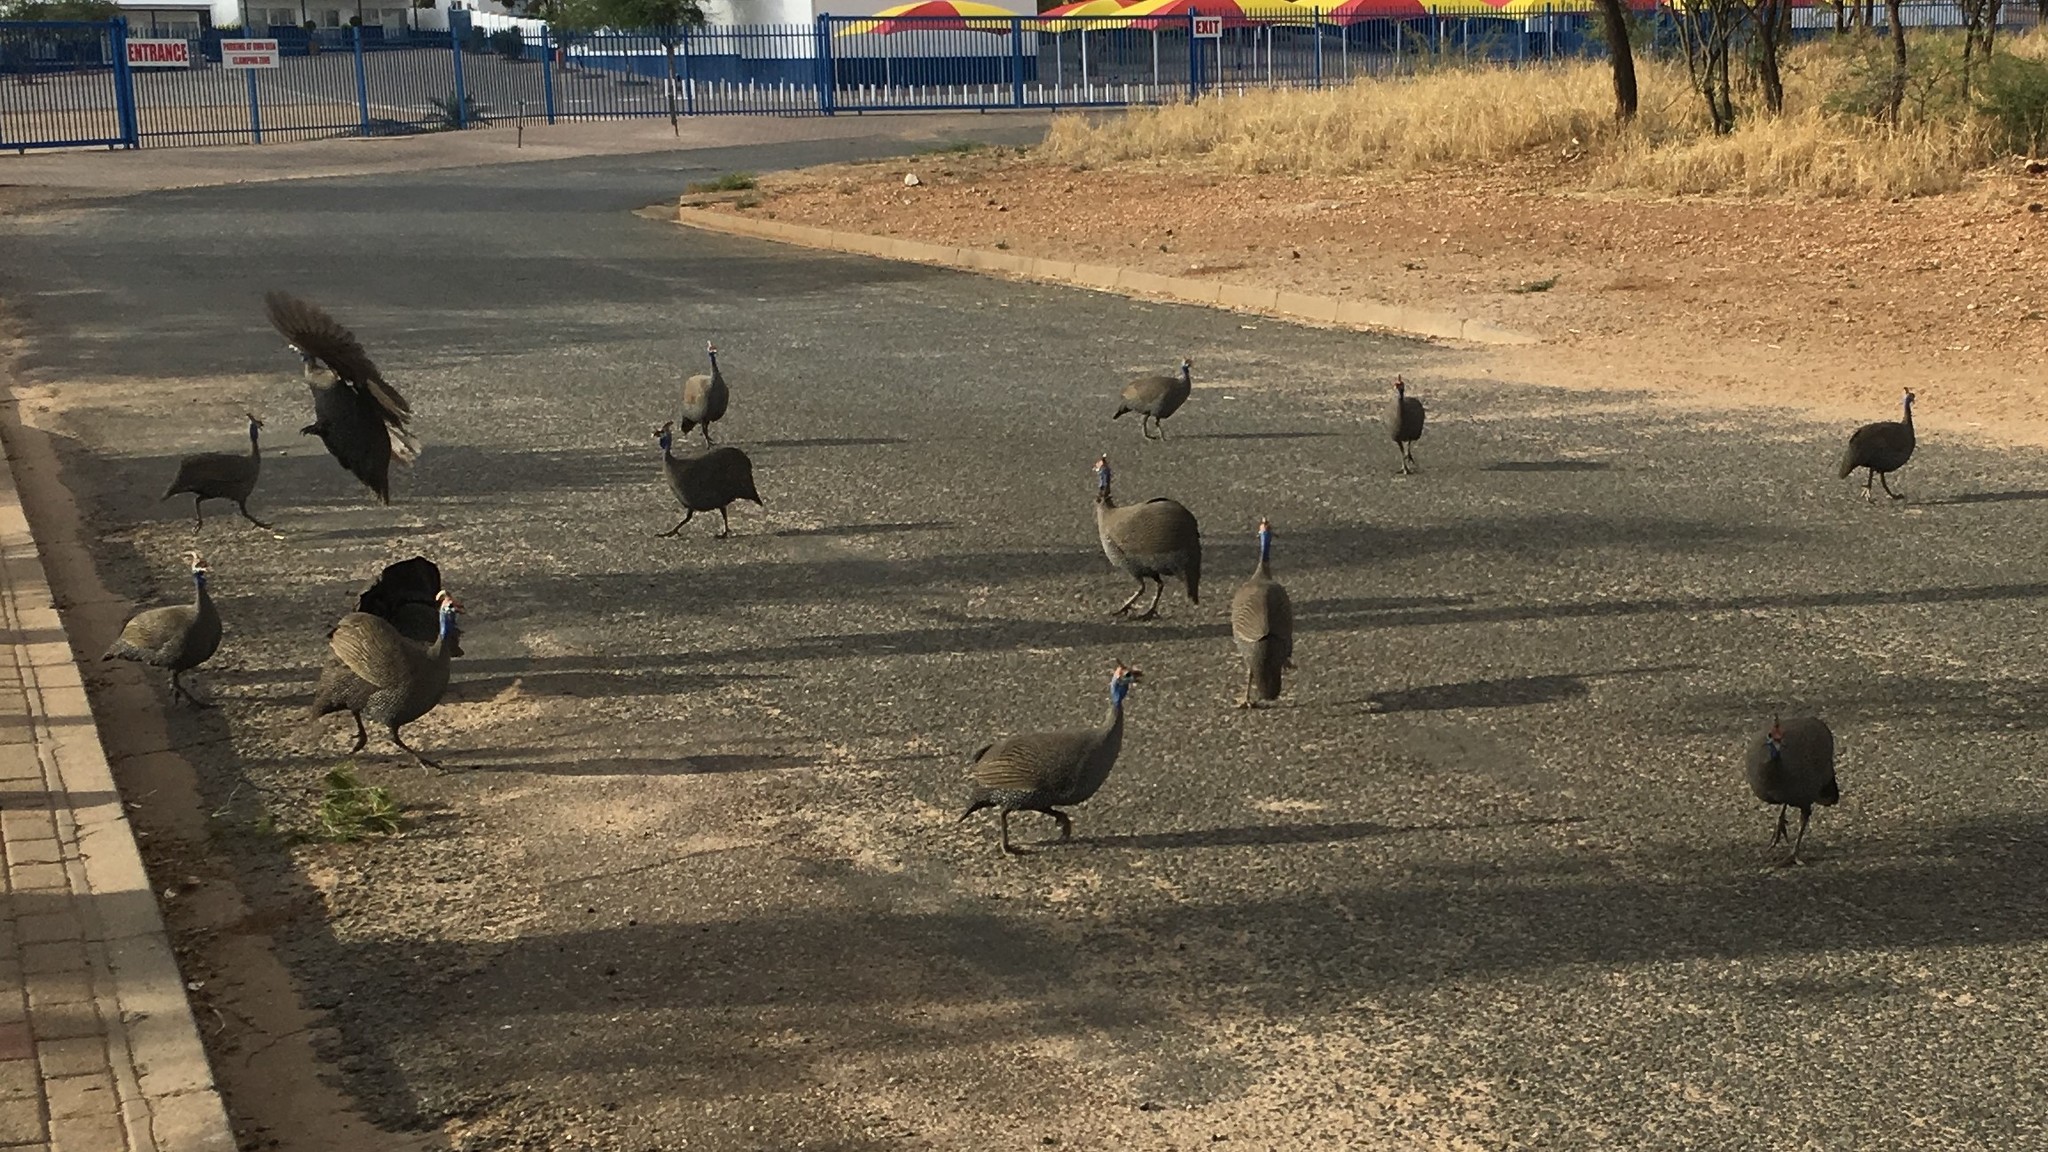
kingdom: Animalia
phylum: Chordata
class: Aves
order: Galliformes
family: Numididae
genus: Numida
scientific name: Numida meleagris
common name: Helmeted guineafowl
